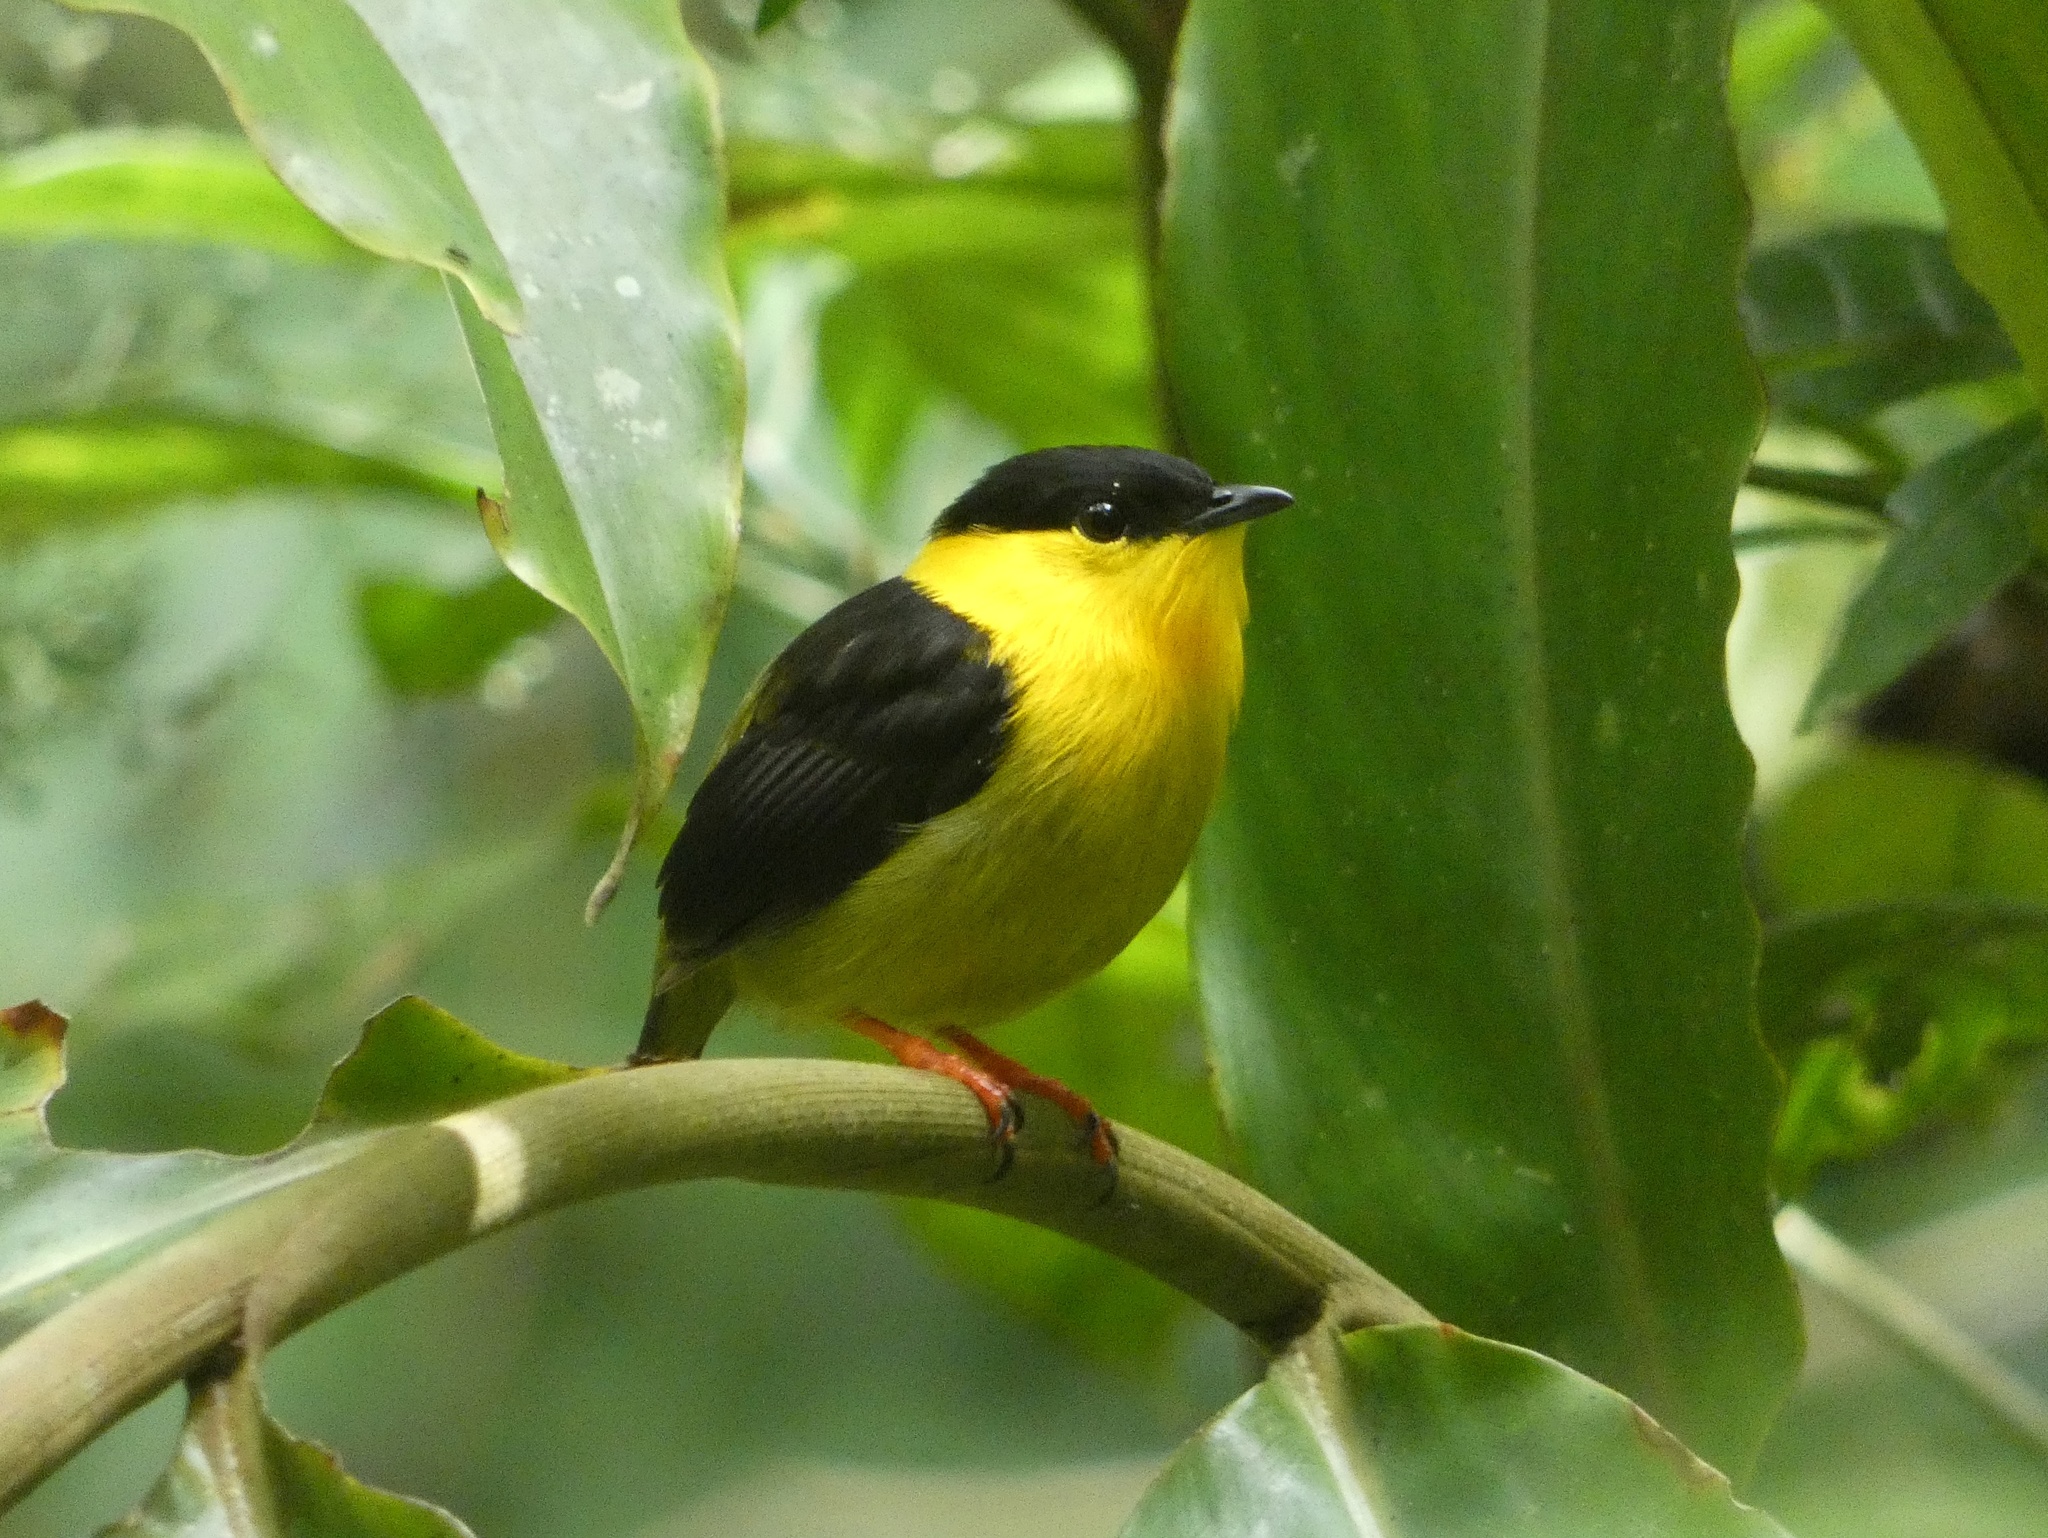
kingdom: Animalia
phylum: Chordata
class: Aves
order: Passeriformes
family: Pipridae
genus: Manacus
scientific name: Manacus vitellinus
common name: Golden-collared manakin
